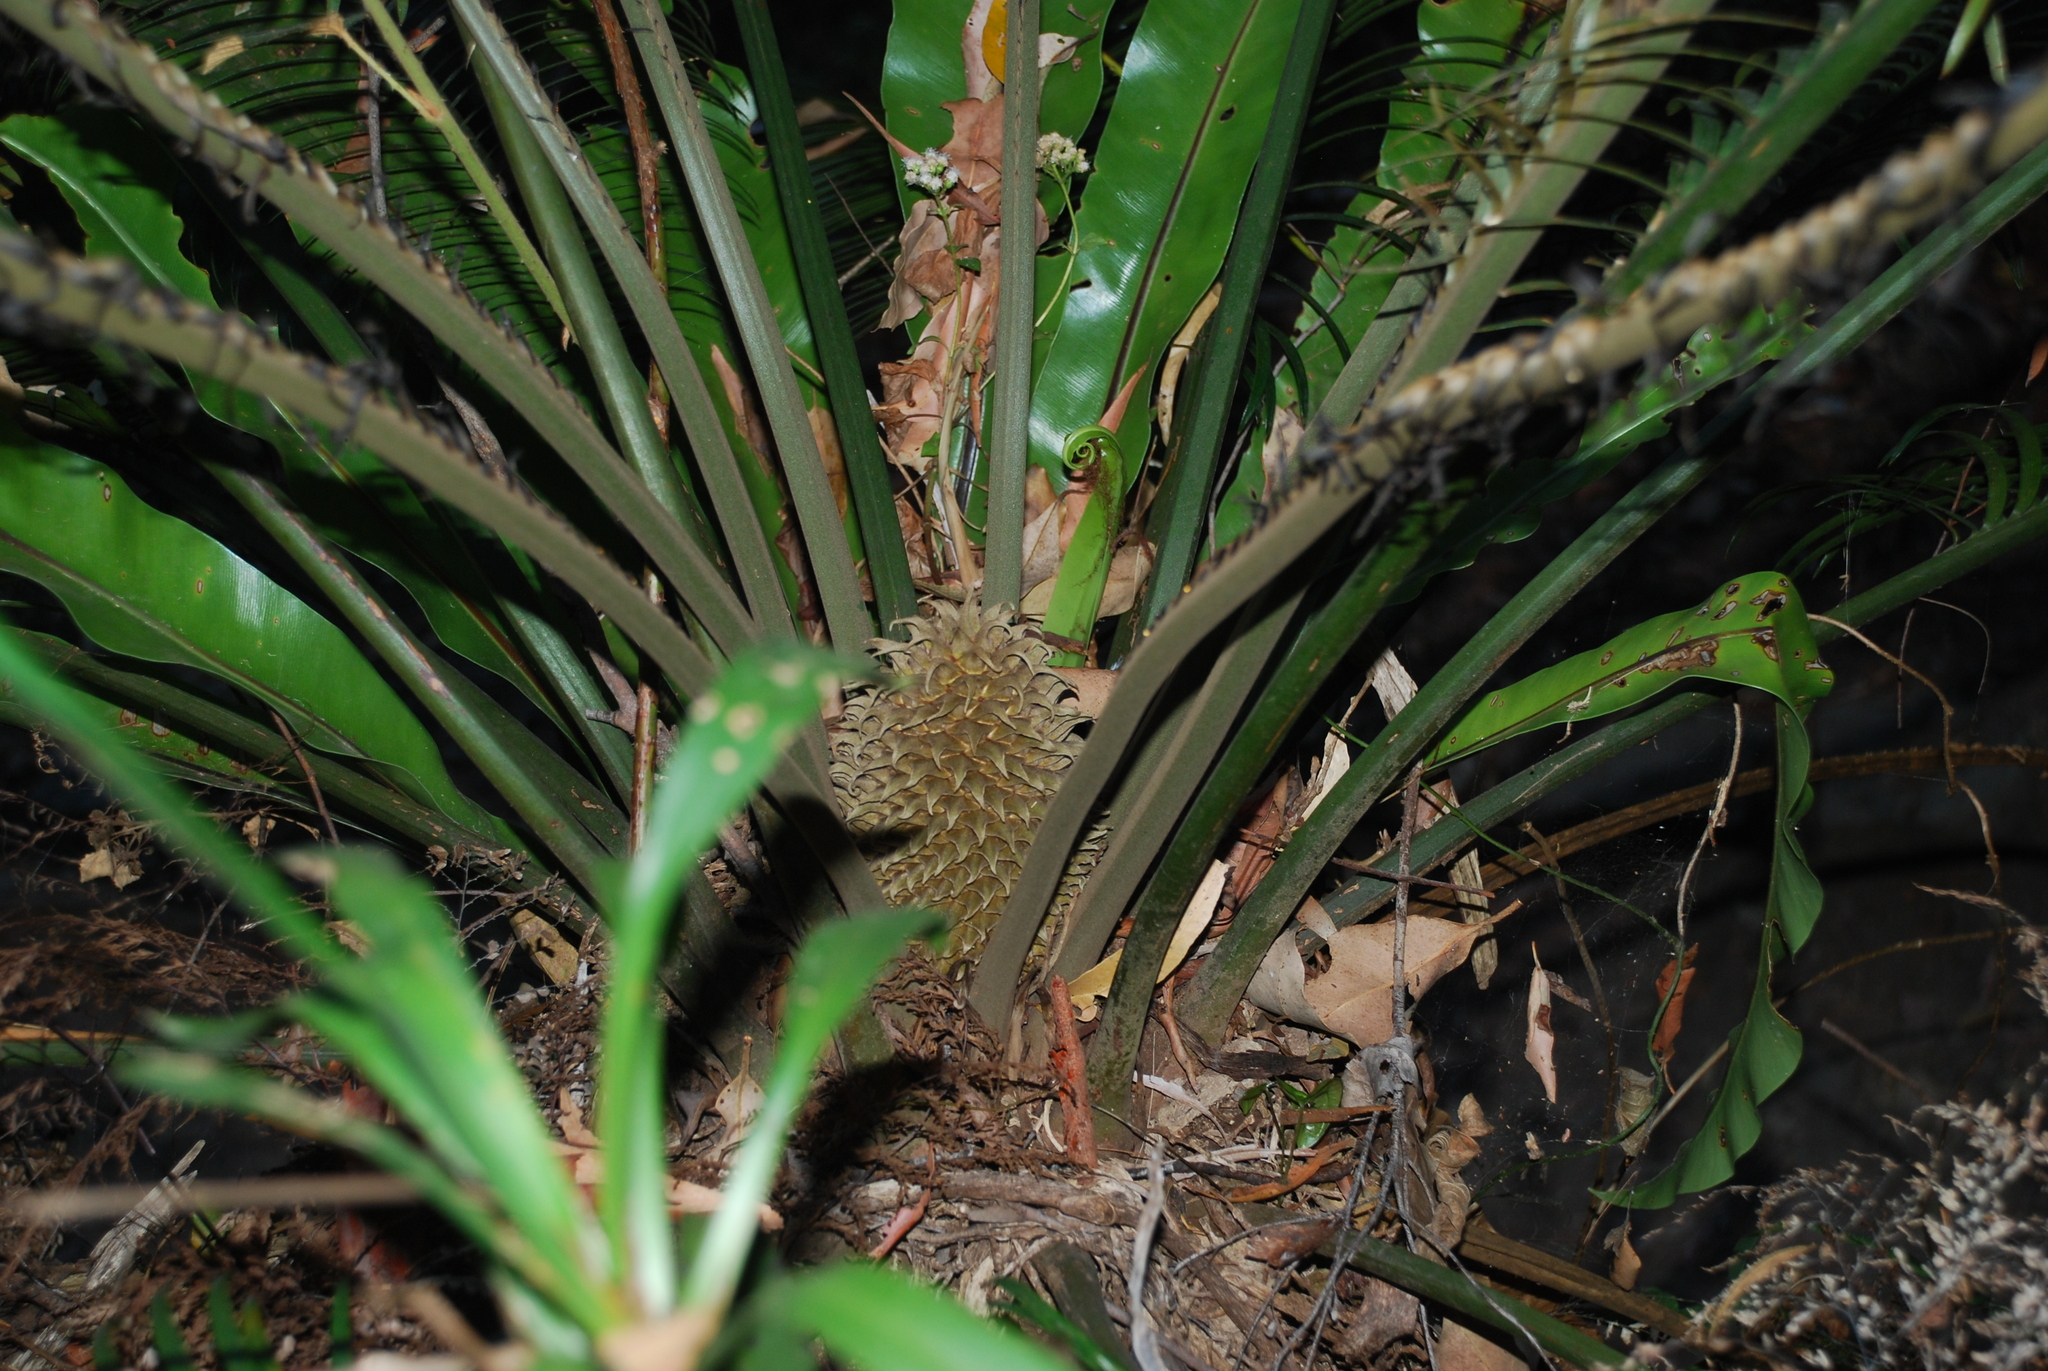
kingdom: Plantae
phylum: Tracheophyta
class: Cycadopsida
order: Cycadales
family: Zamiaceae
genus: Lepidozamia
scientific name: Lepidozamia peroffskyana
